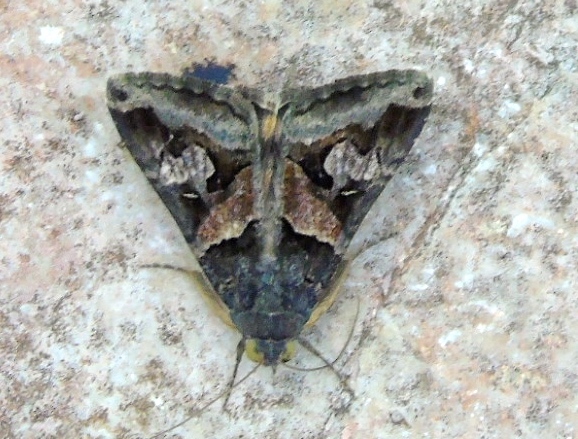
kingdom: Animalia
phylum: Arthropoda
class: Insecta
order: Lepidoptera
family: Erebidae
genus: Melipotis
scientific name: Melipotis
